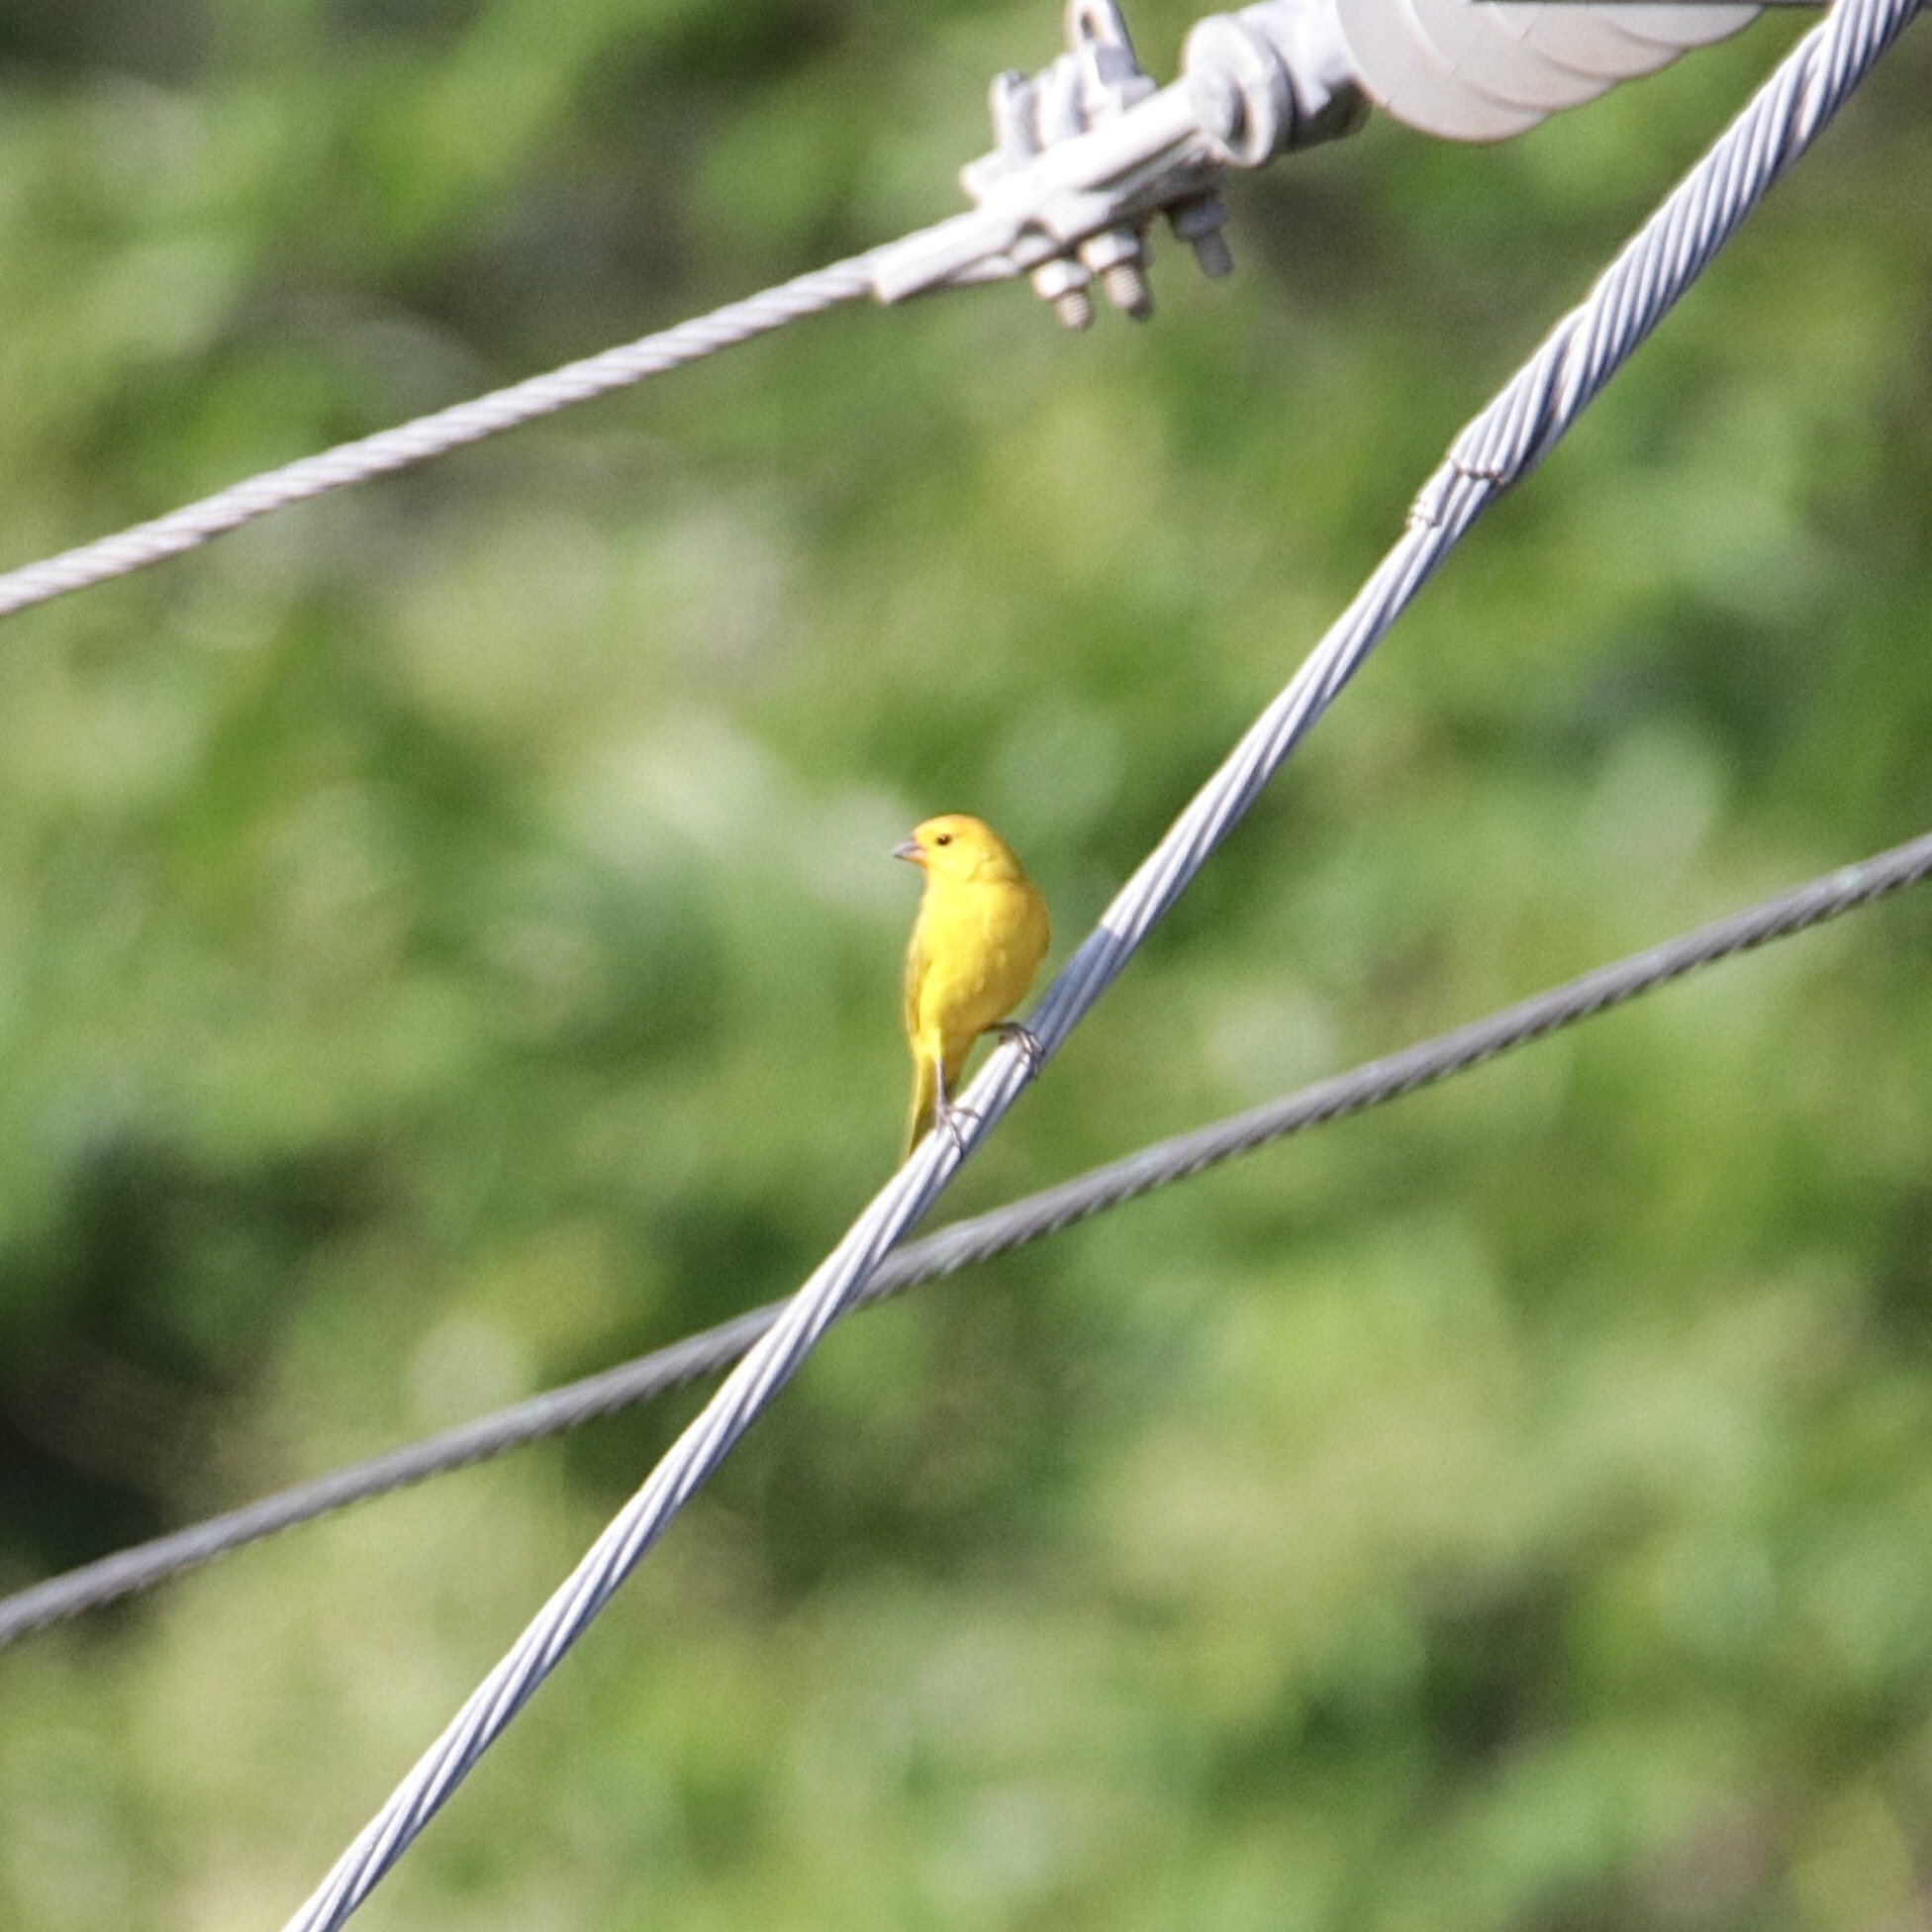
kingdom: Animalia
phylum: Chordata
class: Aves
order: Passeriformes
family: Thraupidae
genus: Sicalis
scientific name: Sicalis flaveola
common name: Saffron finch
